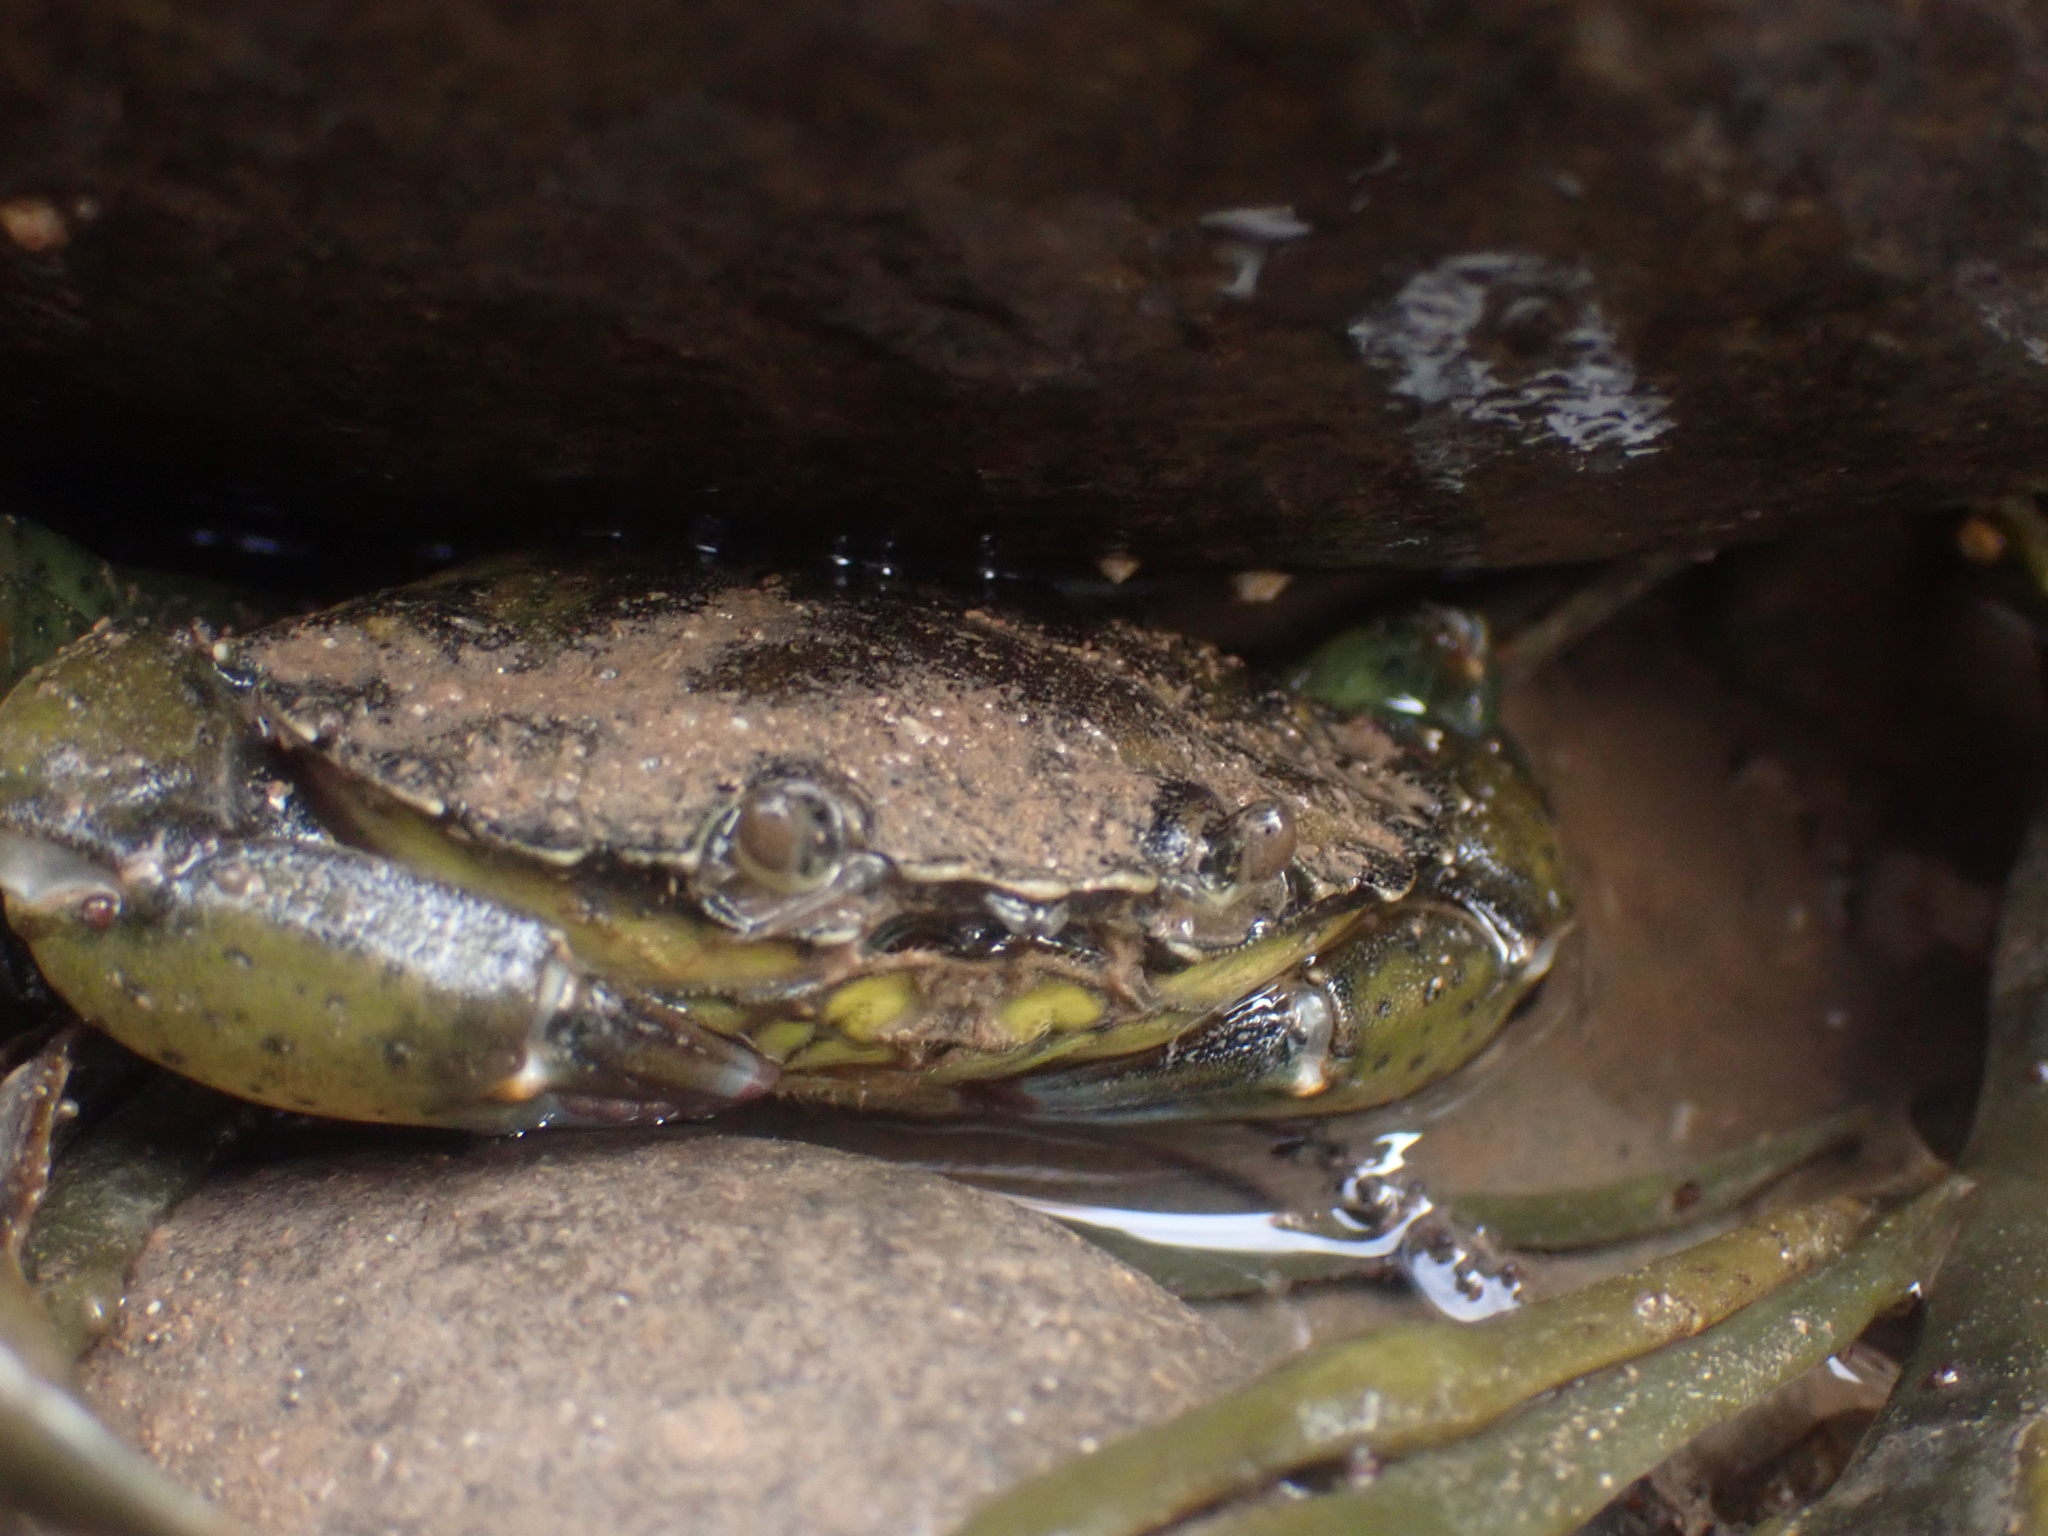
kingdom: Animalia
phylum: Arthropoda
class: Malacostraca
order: Decapoda
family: Carcinidae
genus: Carcinus
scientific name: Carcinus maenas
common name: European green crab
